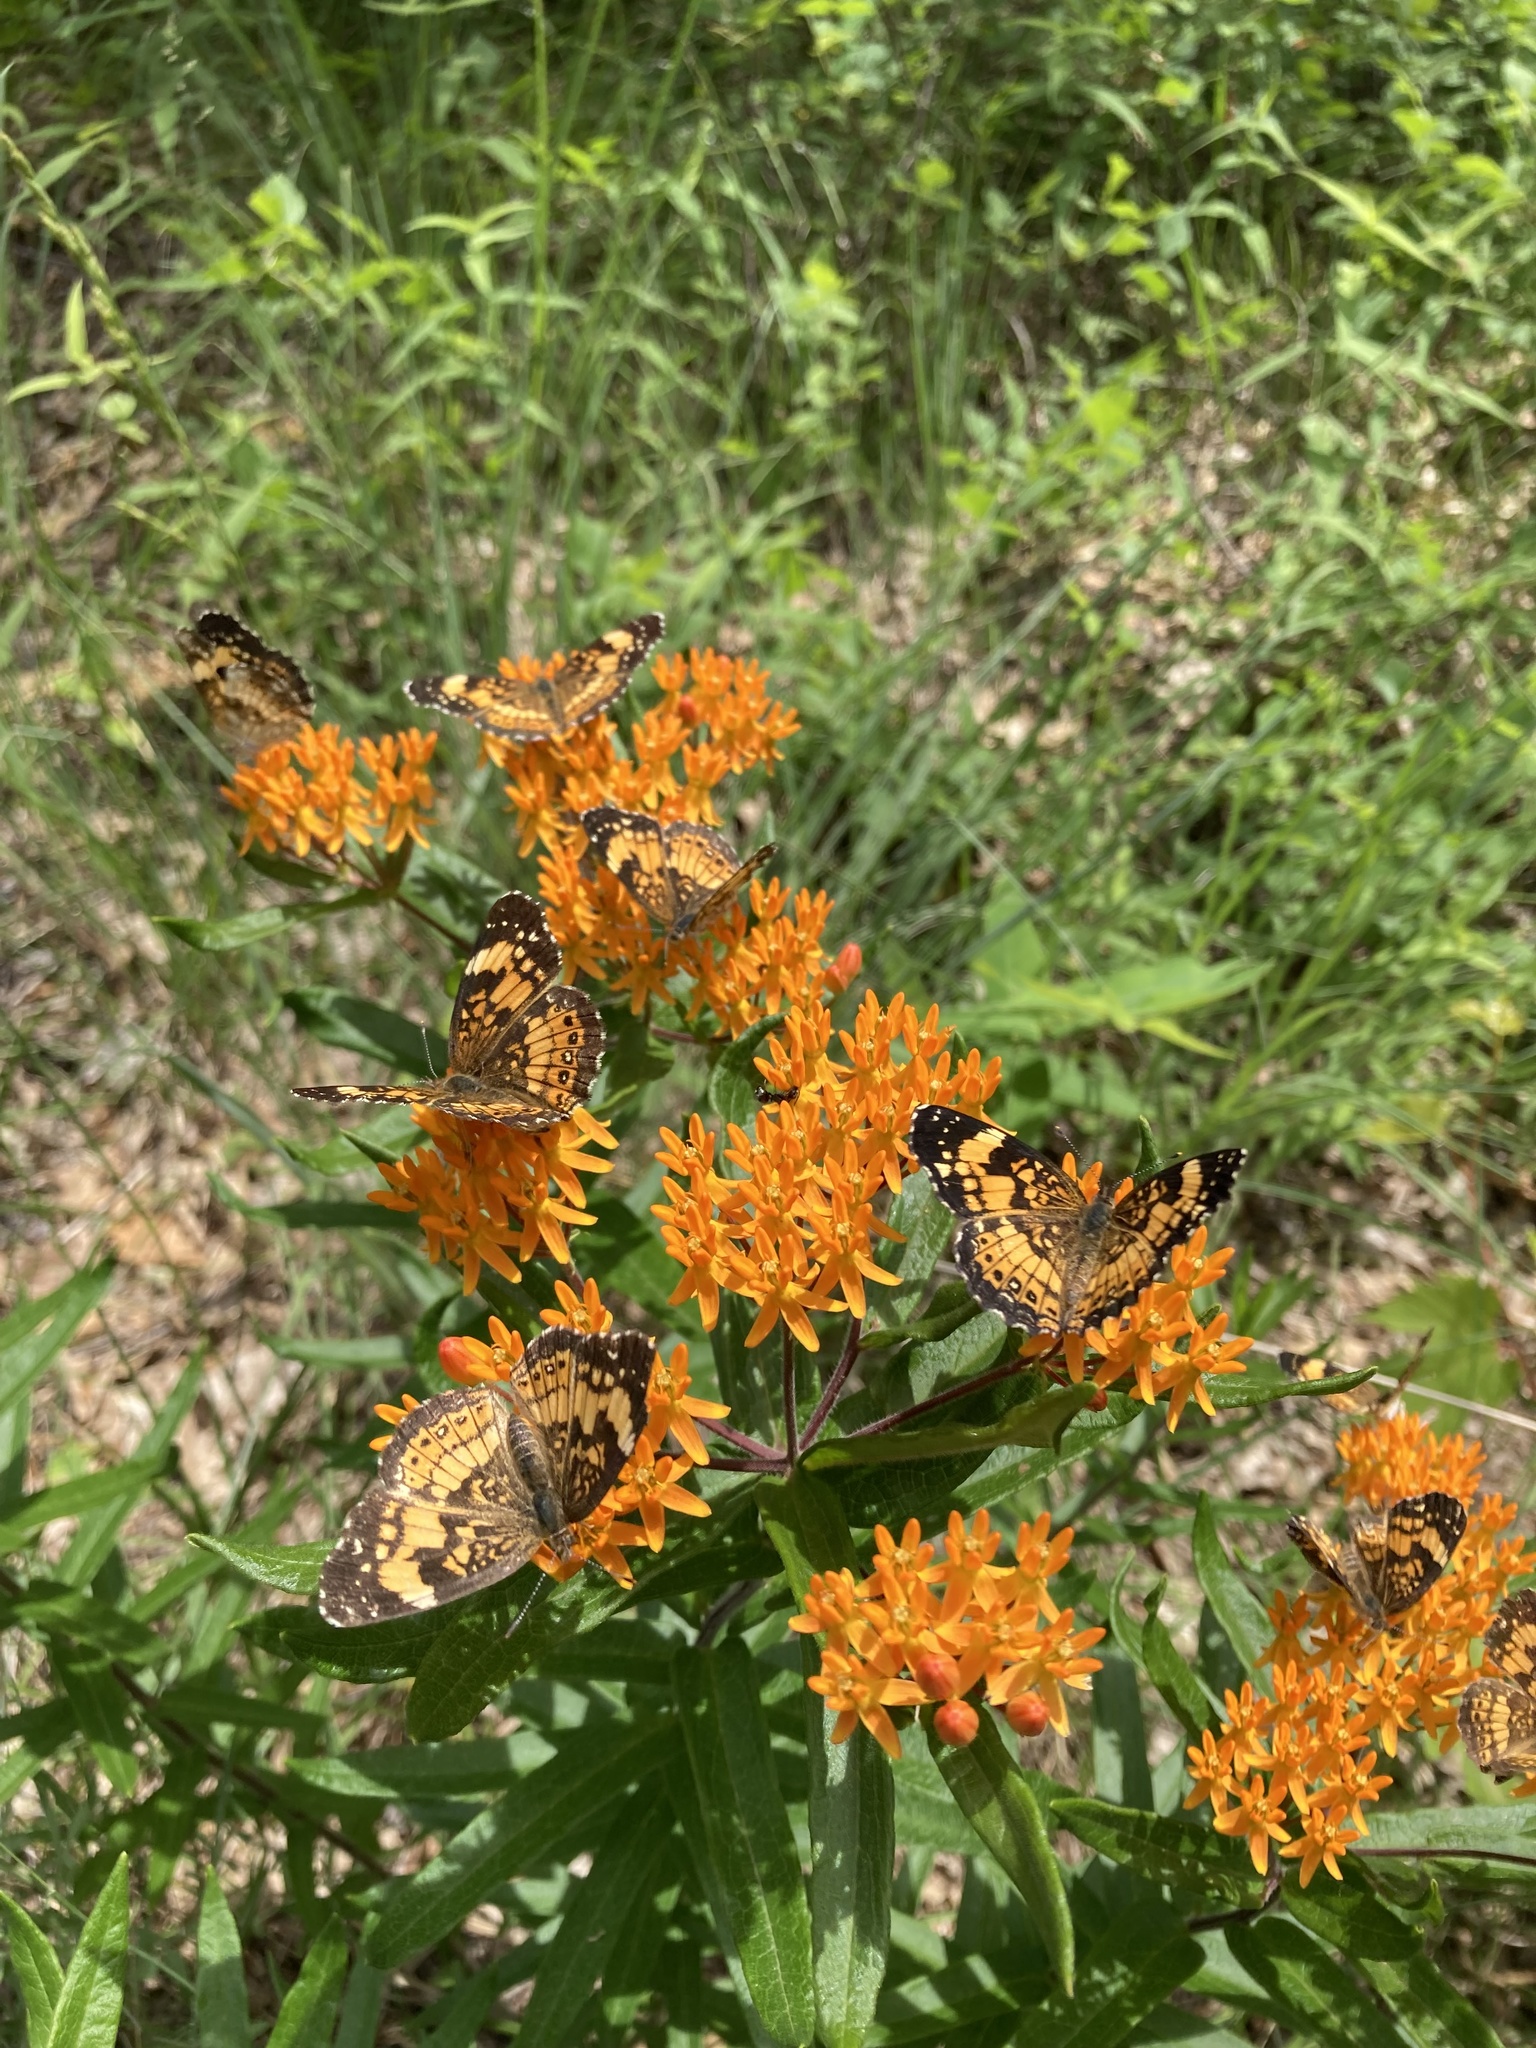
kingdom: Animalia
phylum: Arthropoda
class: Insecta
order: Lepidoptera
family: Nymphalidae
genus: Chlosyne
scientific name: Chlosyne nycteis
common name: Silvery checkerspot
